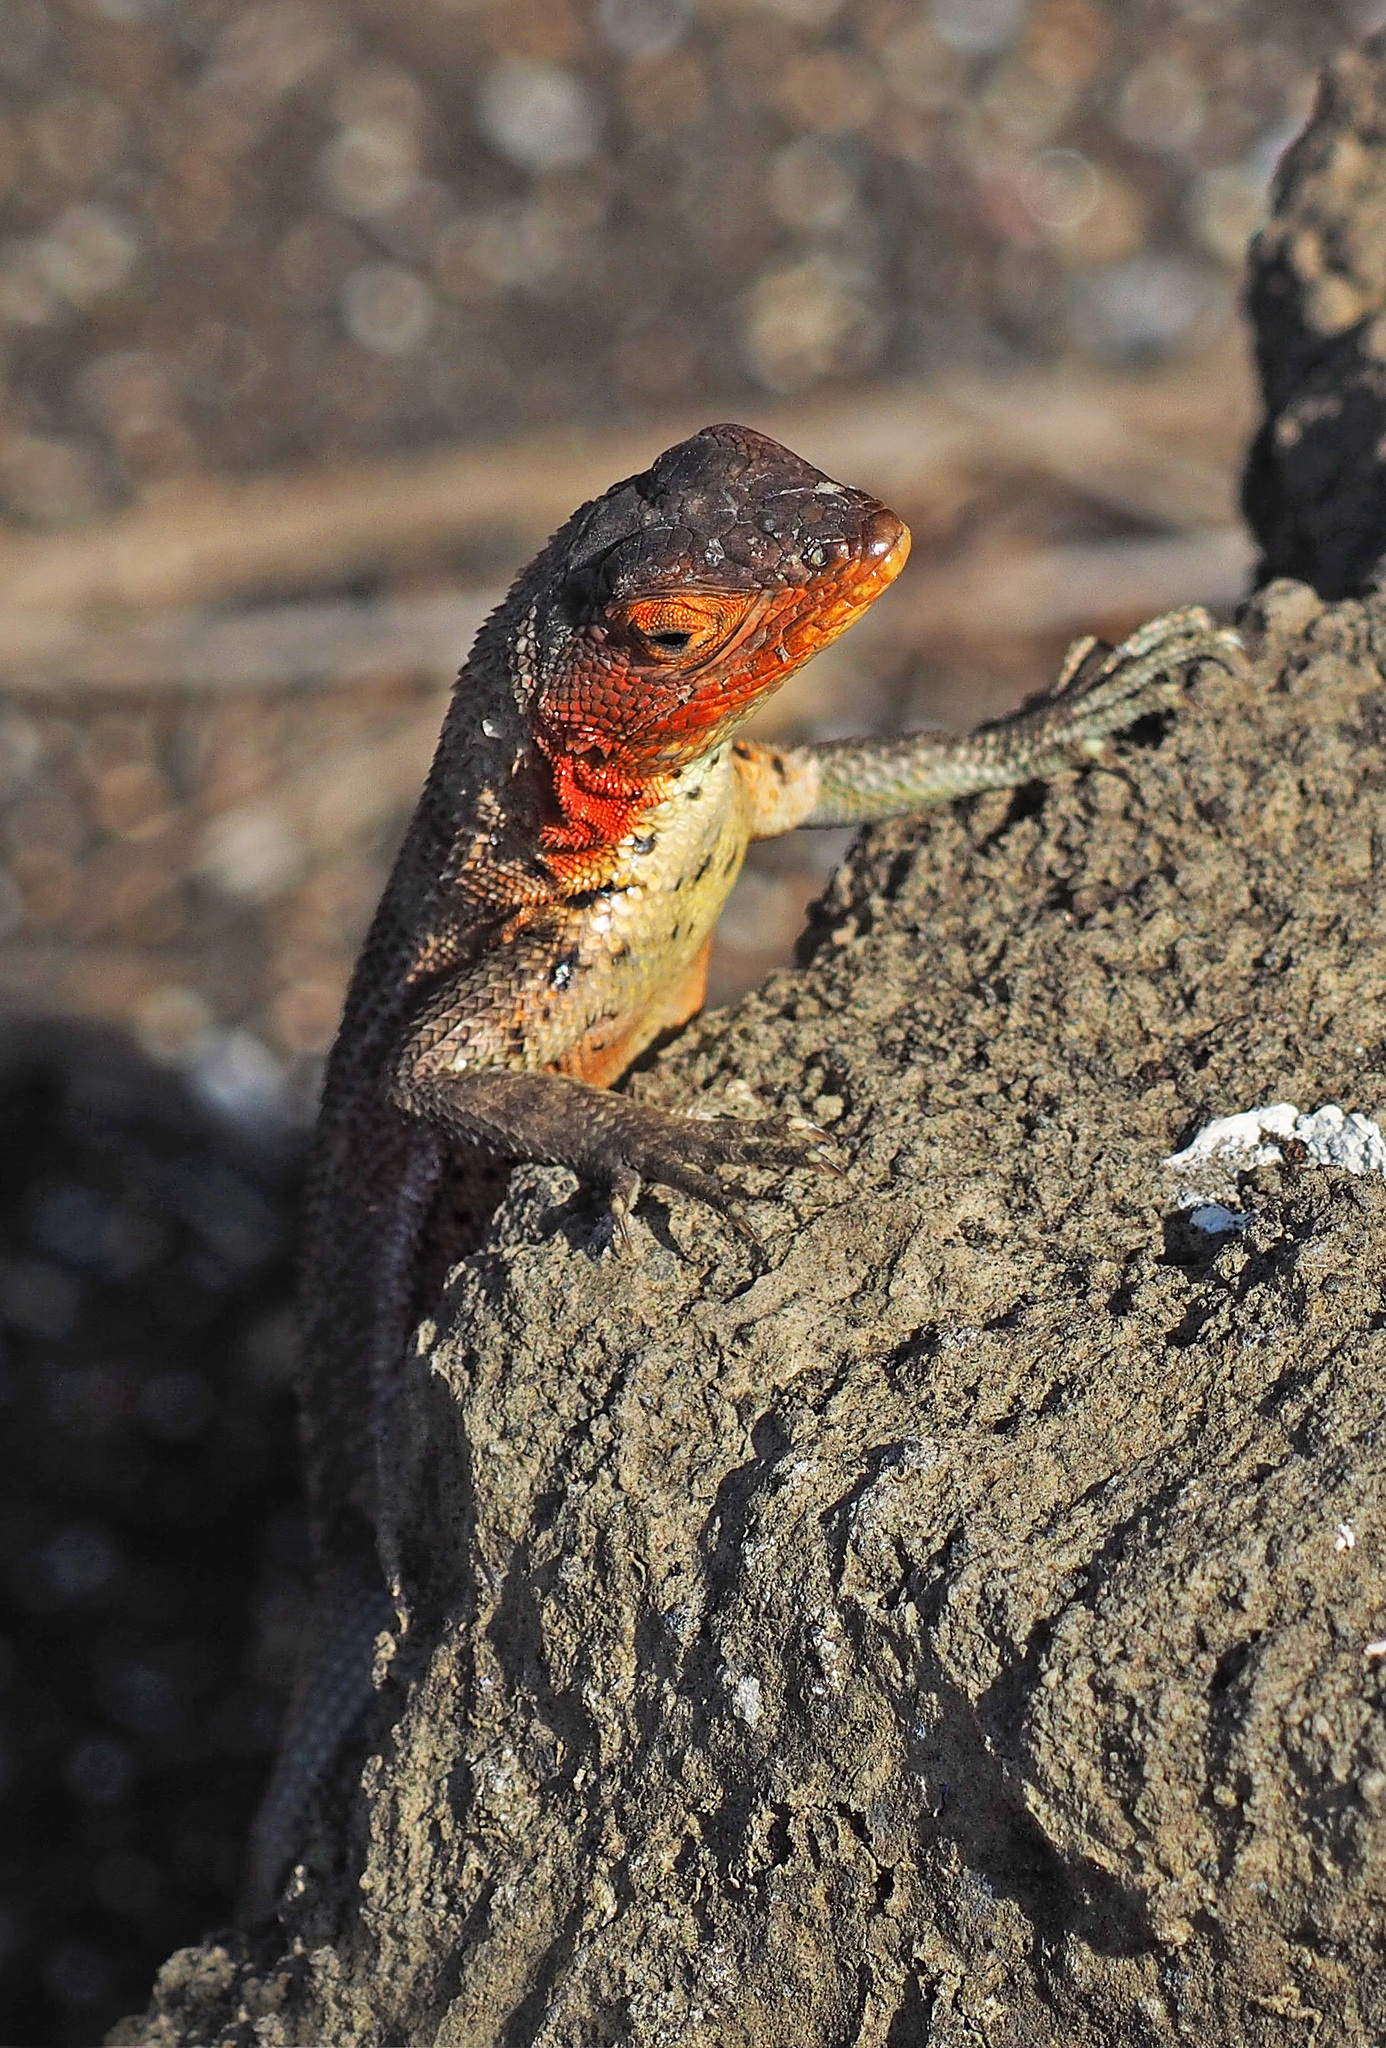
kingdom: Animalia
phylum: Chordata
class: Squamata
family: Tropiduridae
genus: Microlophus
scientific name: Microlophus indefatigabilis
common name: Galapagos lava lizard
